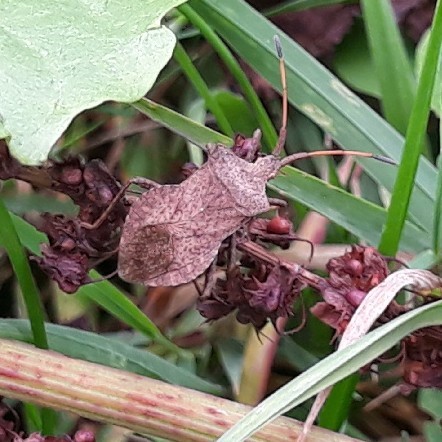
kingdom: Animalia
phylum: Arthropoda
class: Insecta
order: Hemiptera
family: Coreidae
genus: Coreus
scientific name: Coreus marginatus
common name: Dock bug
